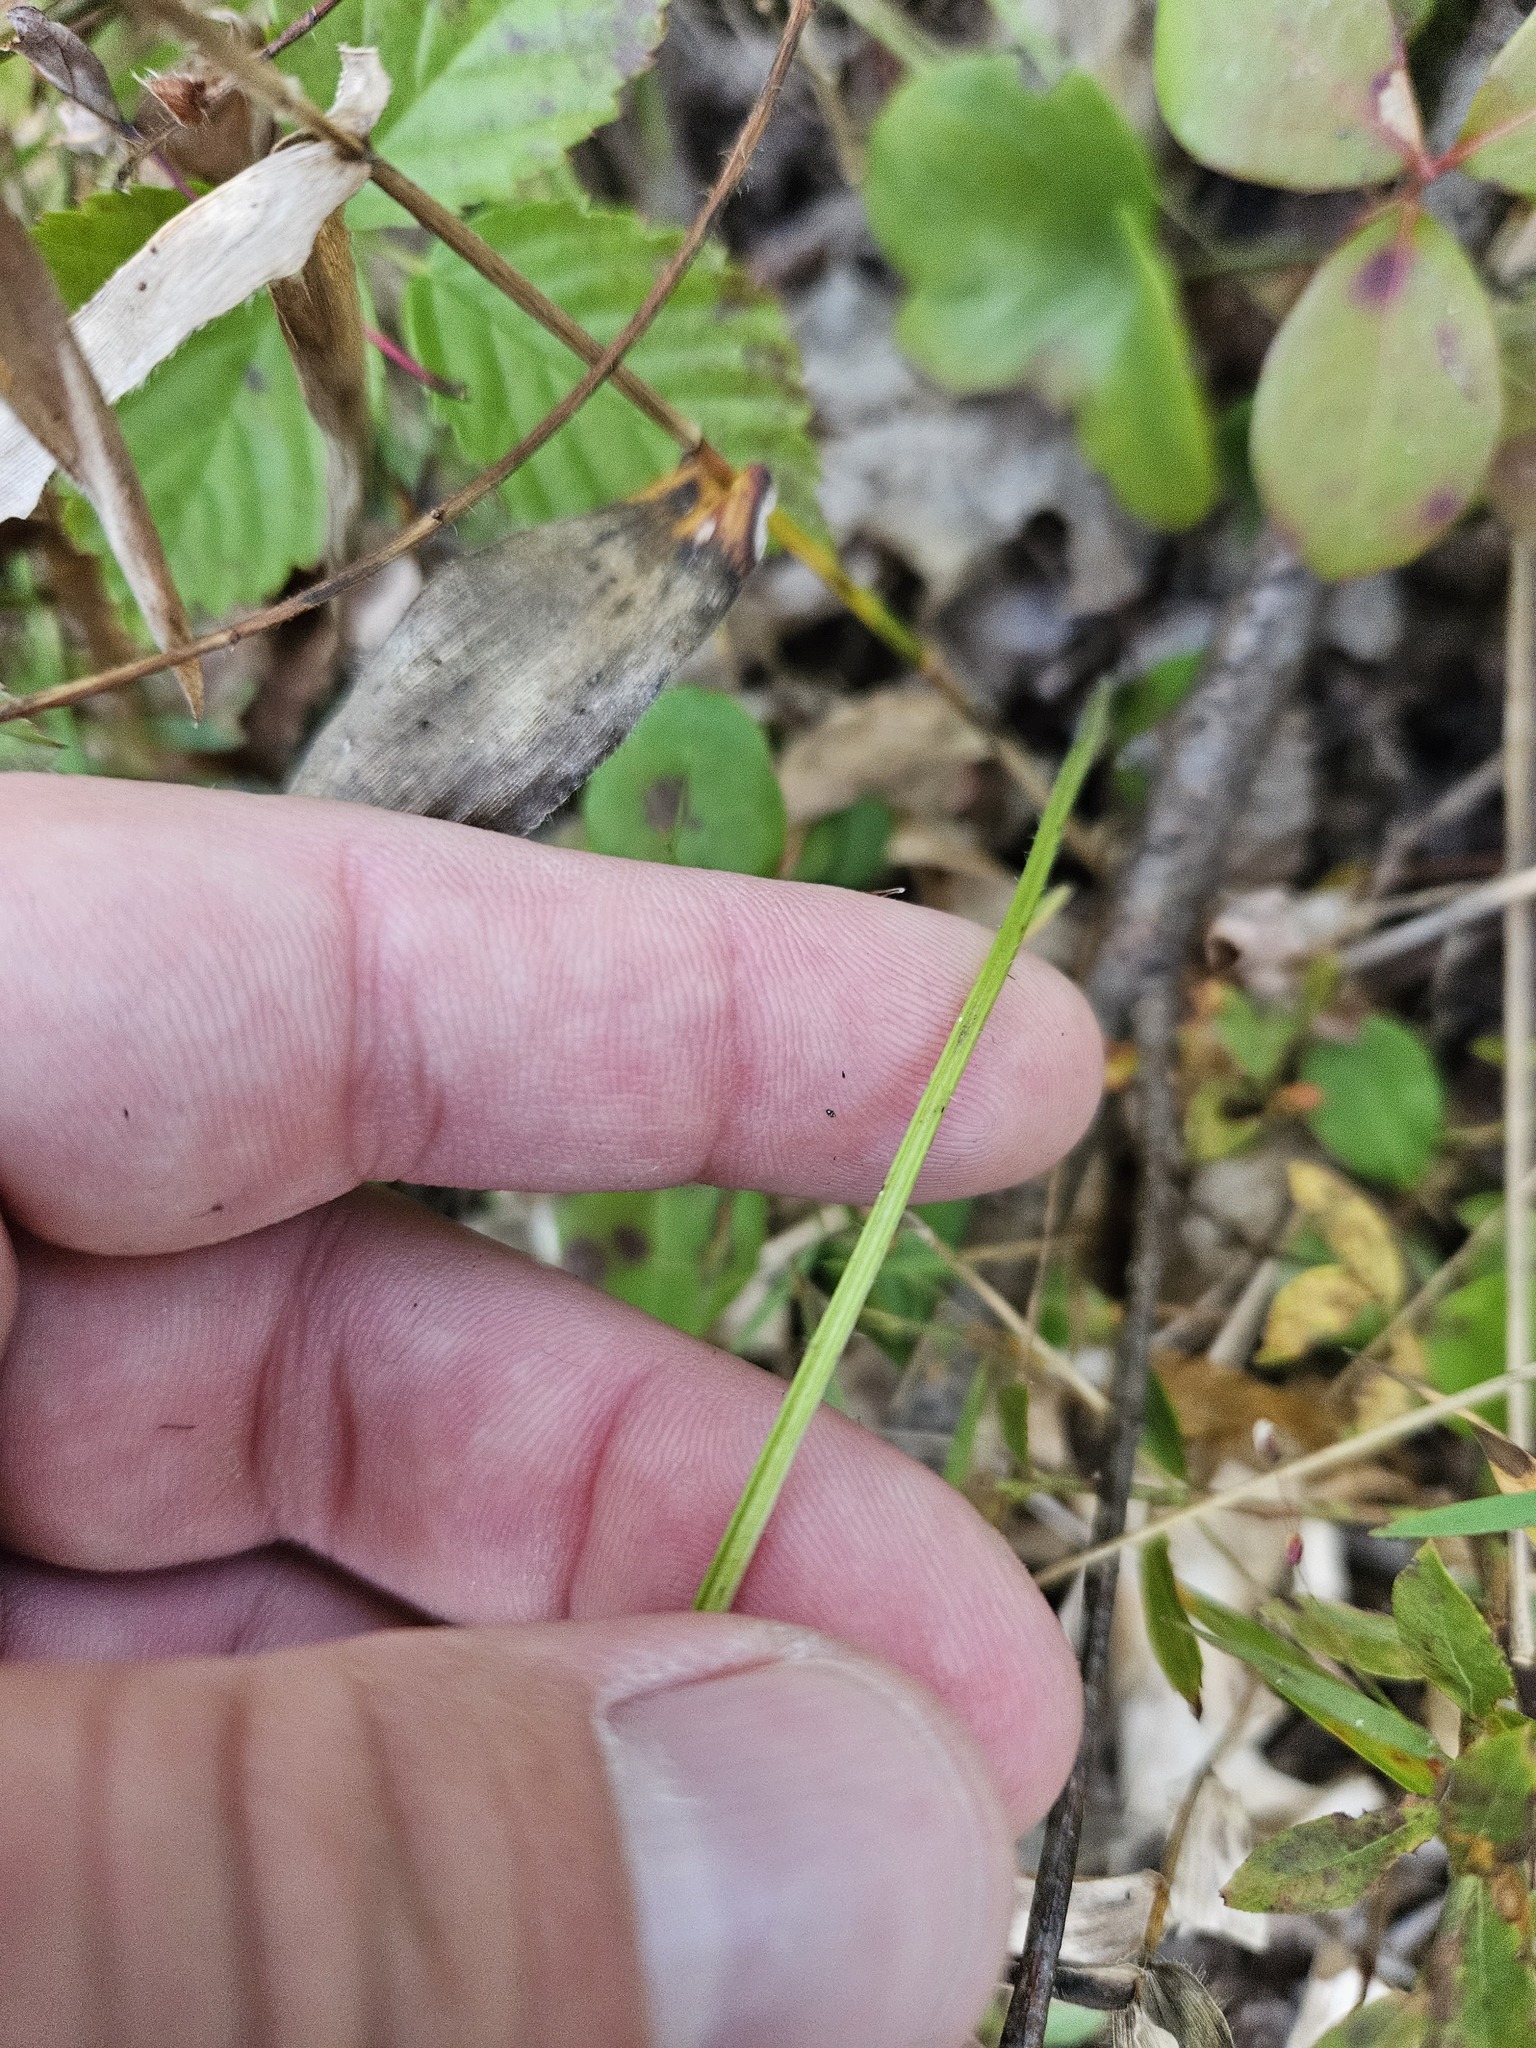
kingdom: Plantae
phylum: Tracheophyta
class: Magnoliopsida
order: Malpighiales
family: Violaceae
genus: Viola
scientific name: Viola subsinuata
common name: Wood violet
